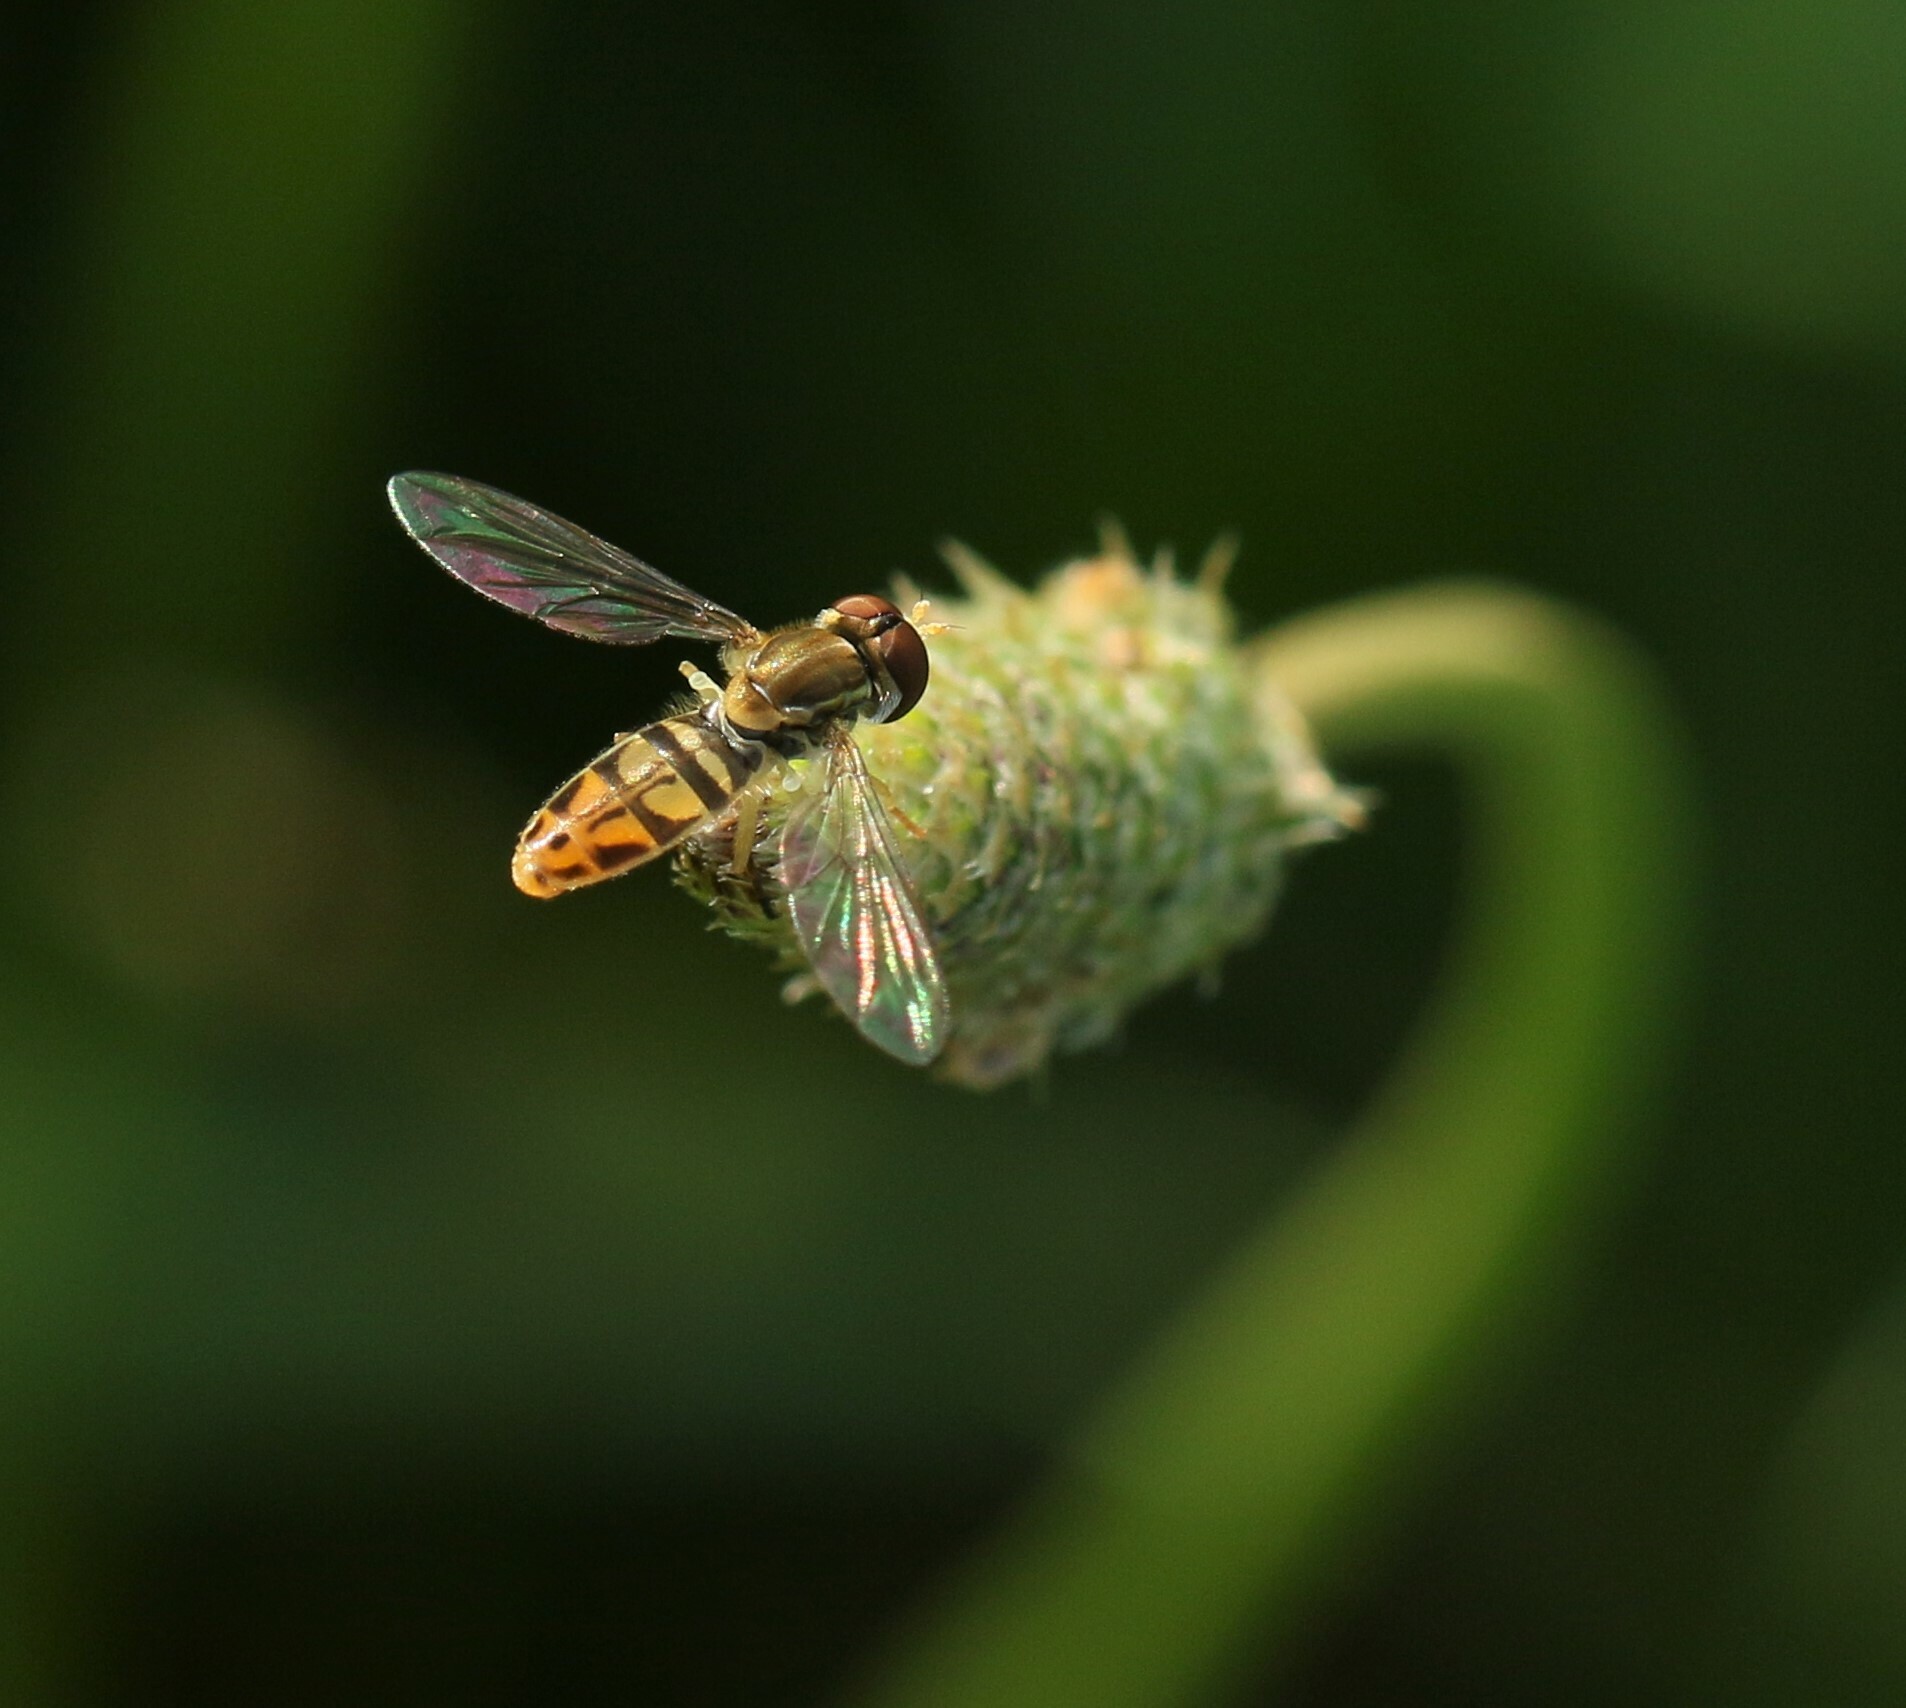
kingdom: Animalia
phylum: Arthropoda
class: Insecta
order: Diptera
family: Syrphidae
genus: Toxomerus
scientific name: Toxomerus marginatus
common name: Syrphid fly
